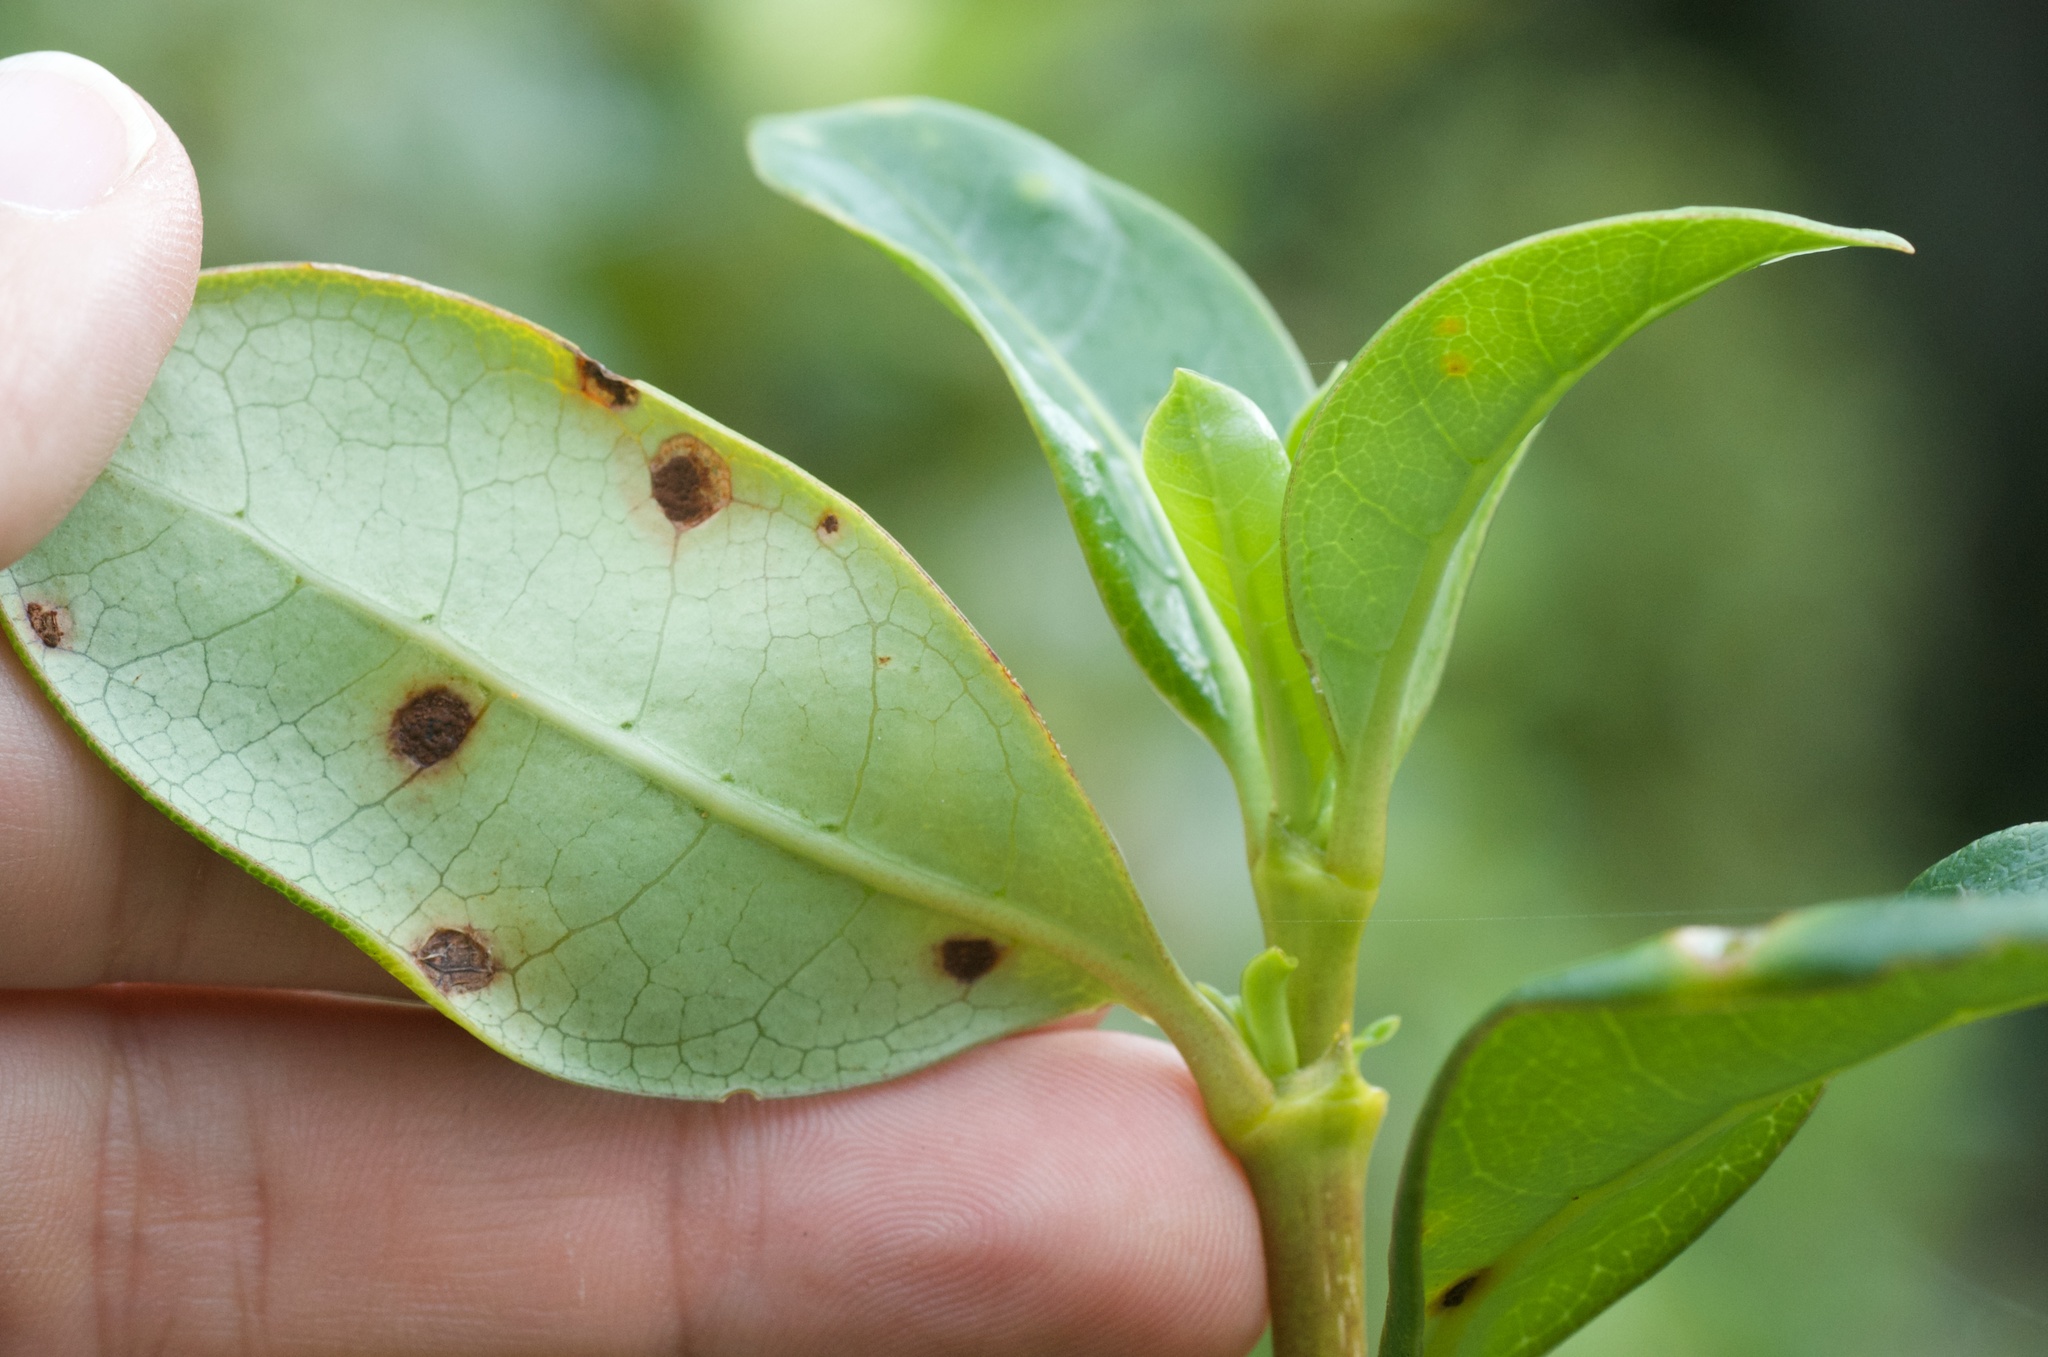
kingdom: Fungi
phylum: Basidiomycota
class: Pucciniomycetes
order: Pucciniales
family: Pucciniaceae
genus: Puccinia
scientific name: Puccinia coprosmae
